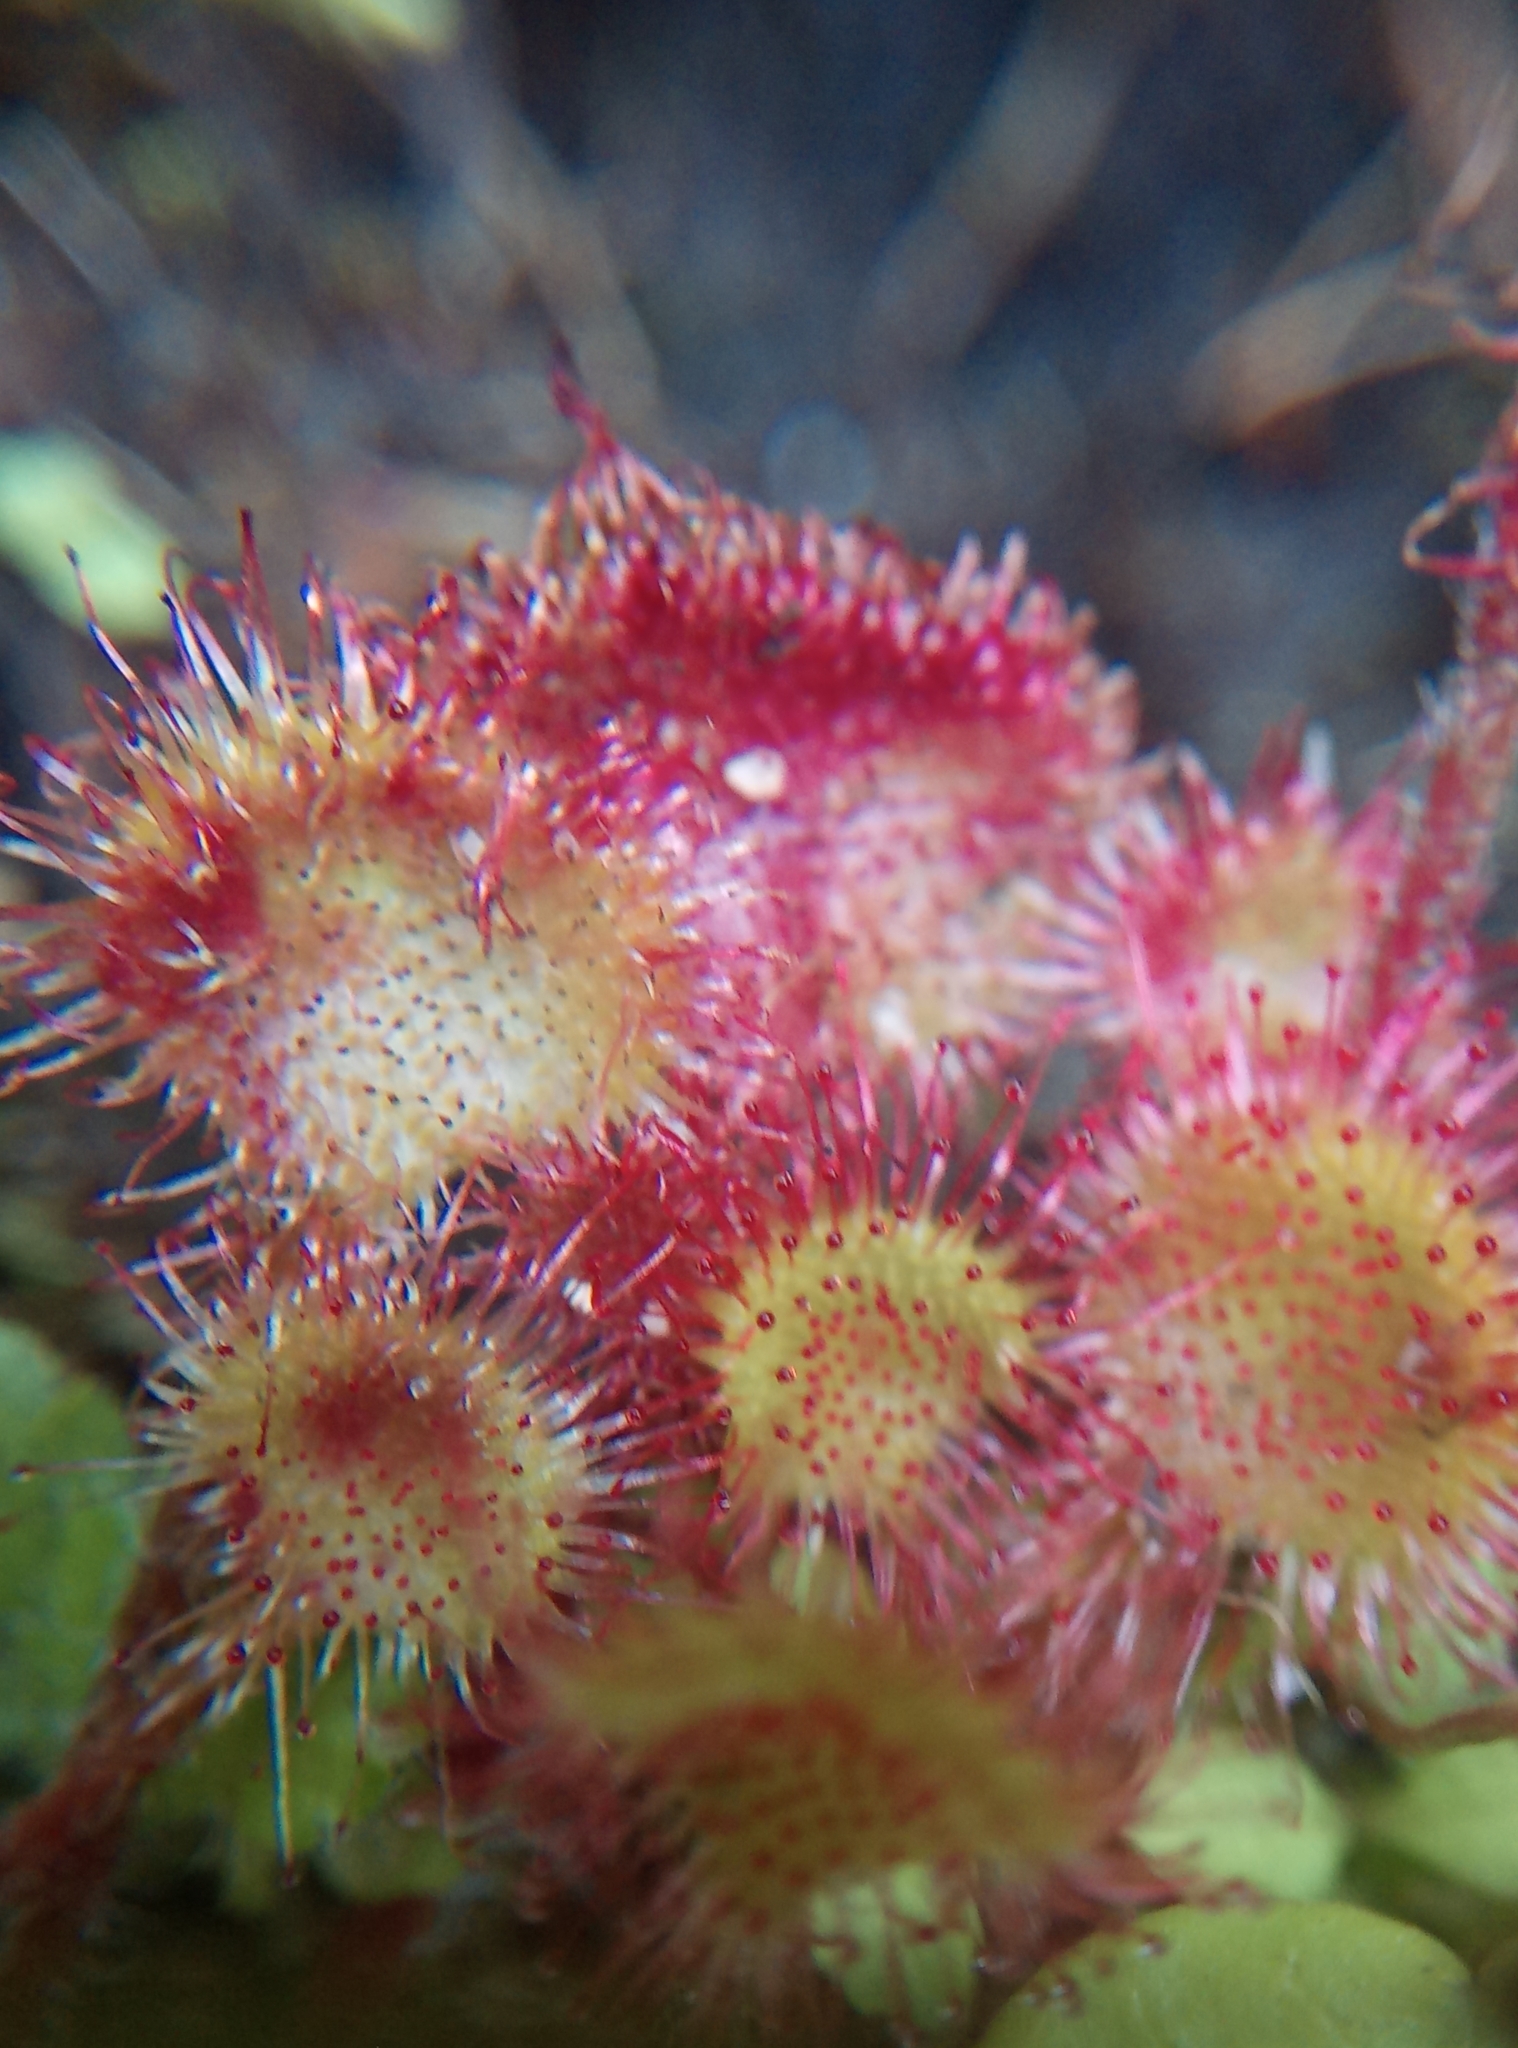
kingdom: Plantae
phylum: Tracheophyta
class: Magnoliopsida
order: Caryophyllales
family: Droseraceae
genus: Drosera
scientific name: Drosera rotundifolia
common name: Round-leaved sundew
